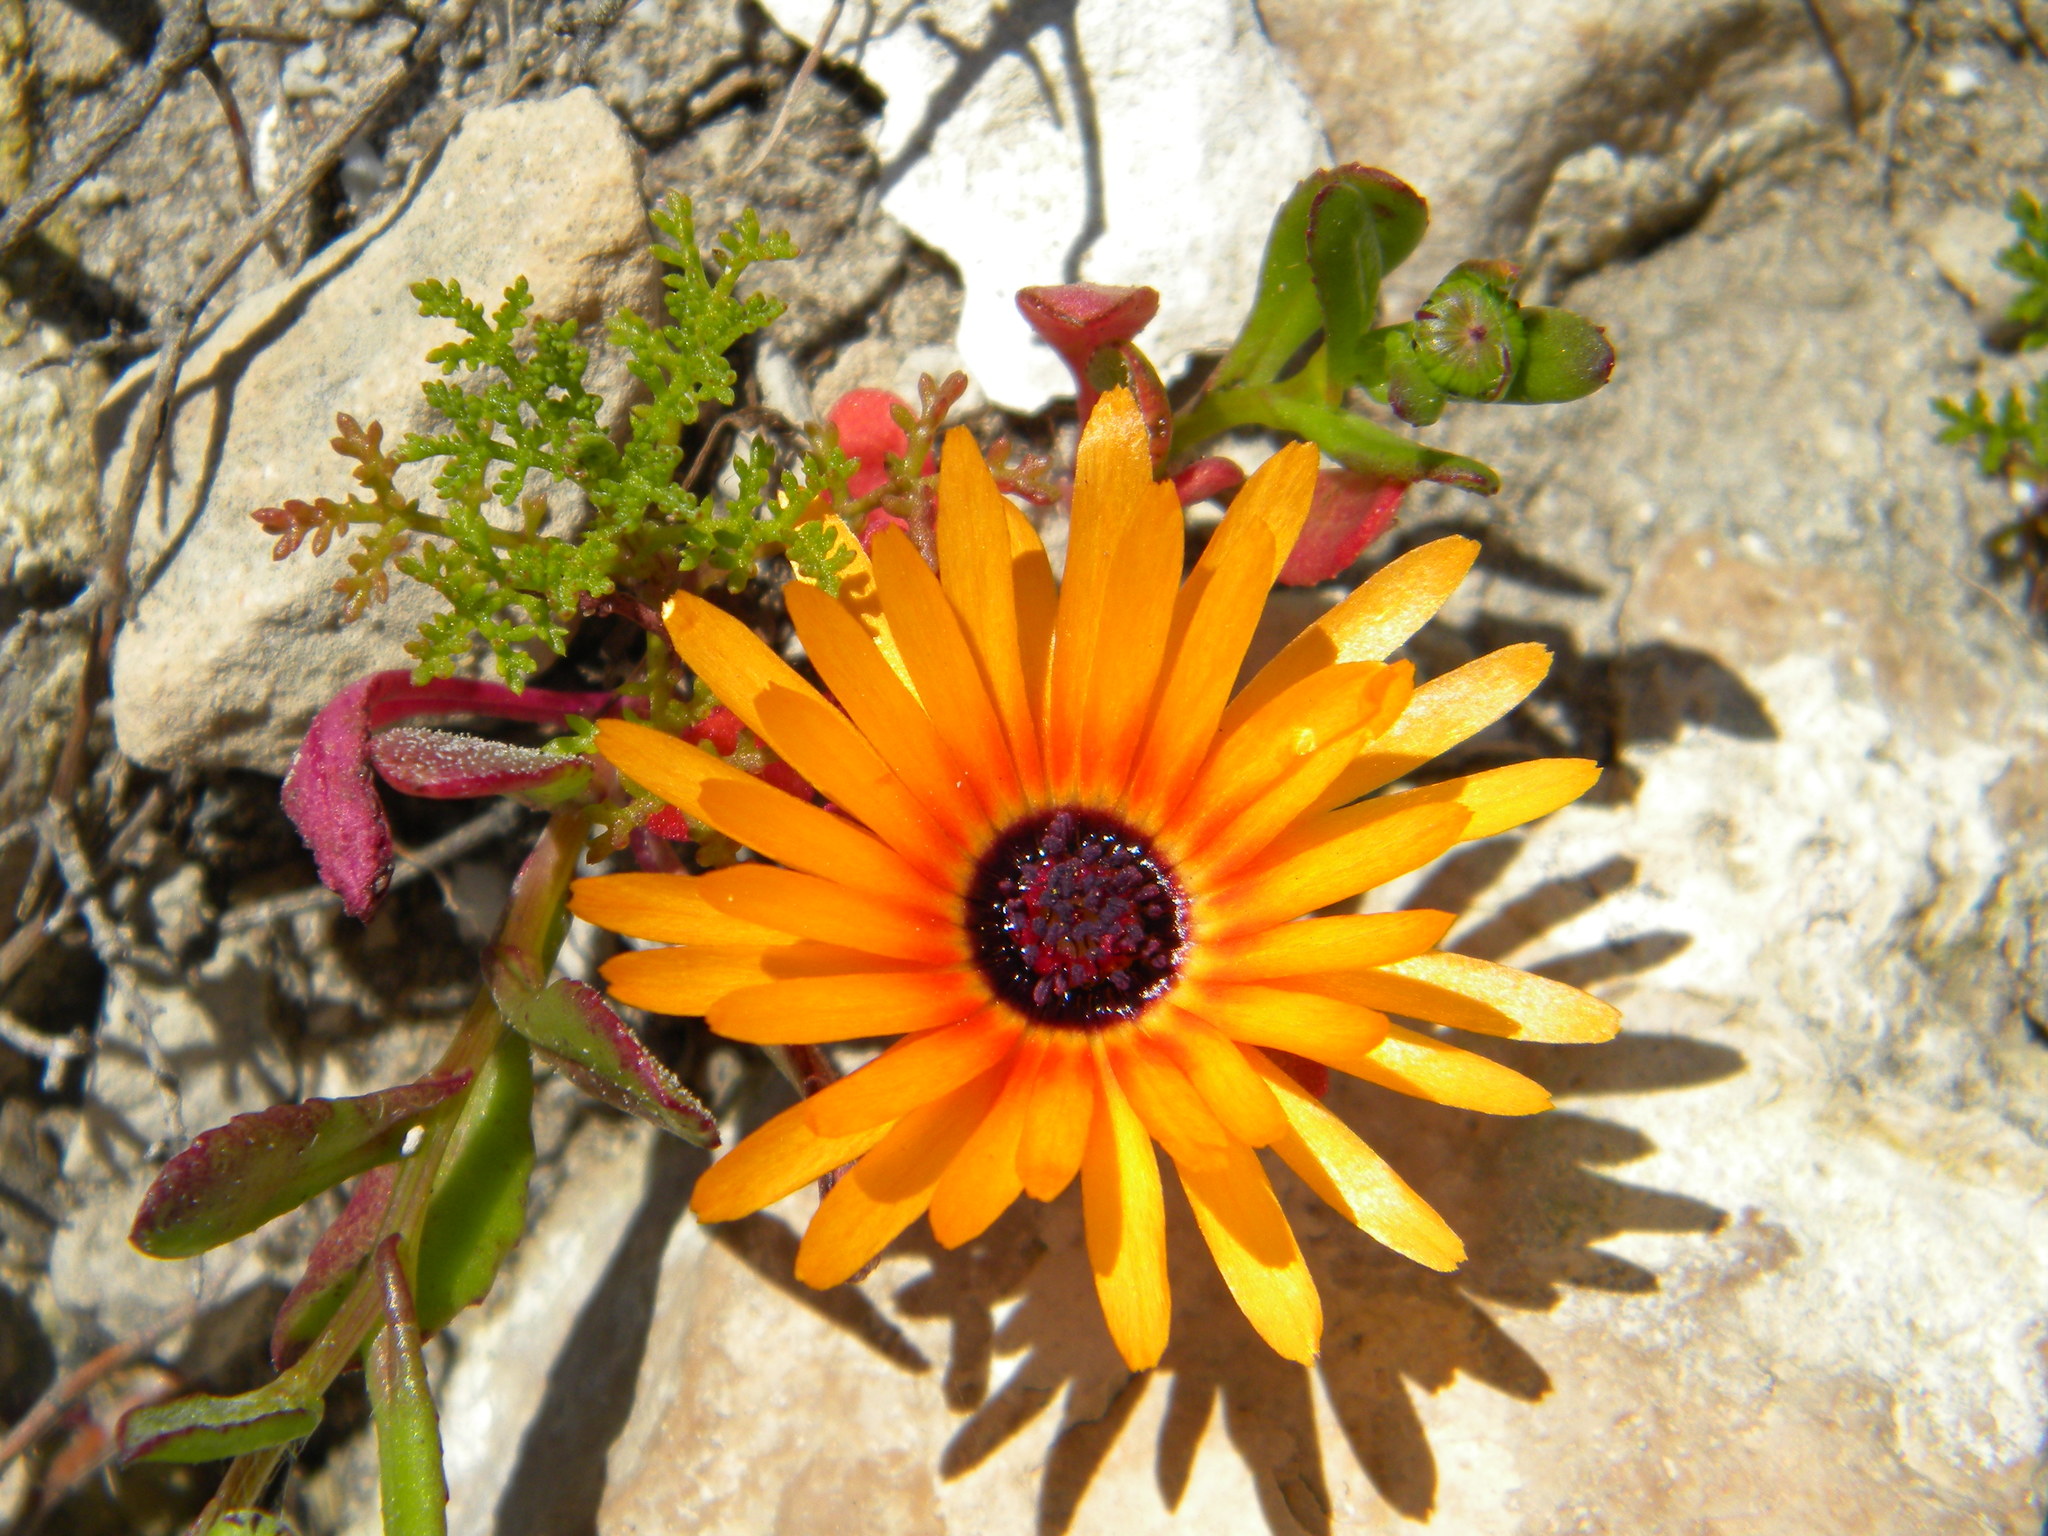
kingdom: Plantae
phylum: Tracheophyta
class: Magnoliopsida
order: Caryophyllales
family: Aizoaceae
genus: Cleretum
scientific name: Cleretum bellidiforme
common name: Livingstone daisy
